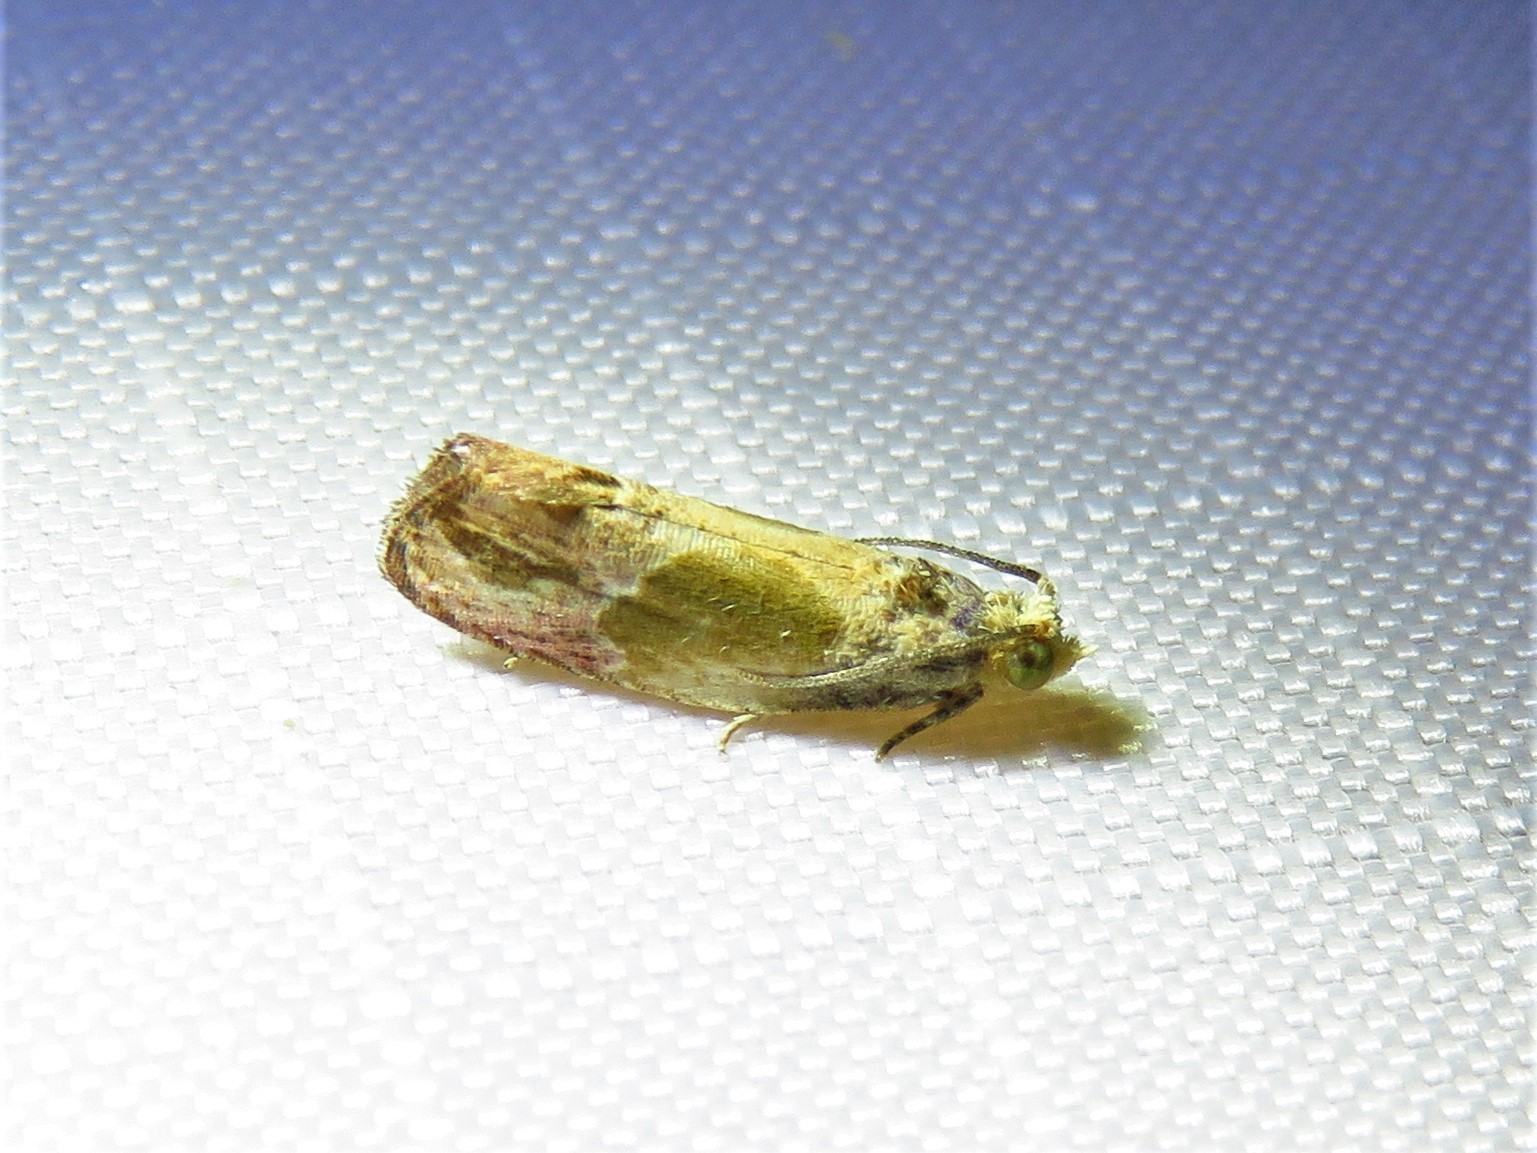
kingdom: Animalia
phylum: Arthropoda
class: Insecta
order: Lepidoptera
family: Tortricidae
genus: Eumarozia
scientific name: Eumarozia malachitana
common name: Sculptured moth
